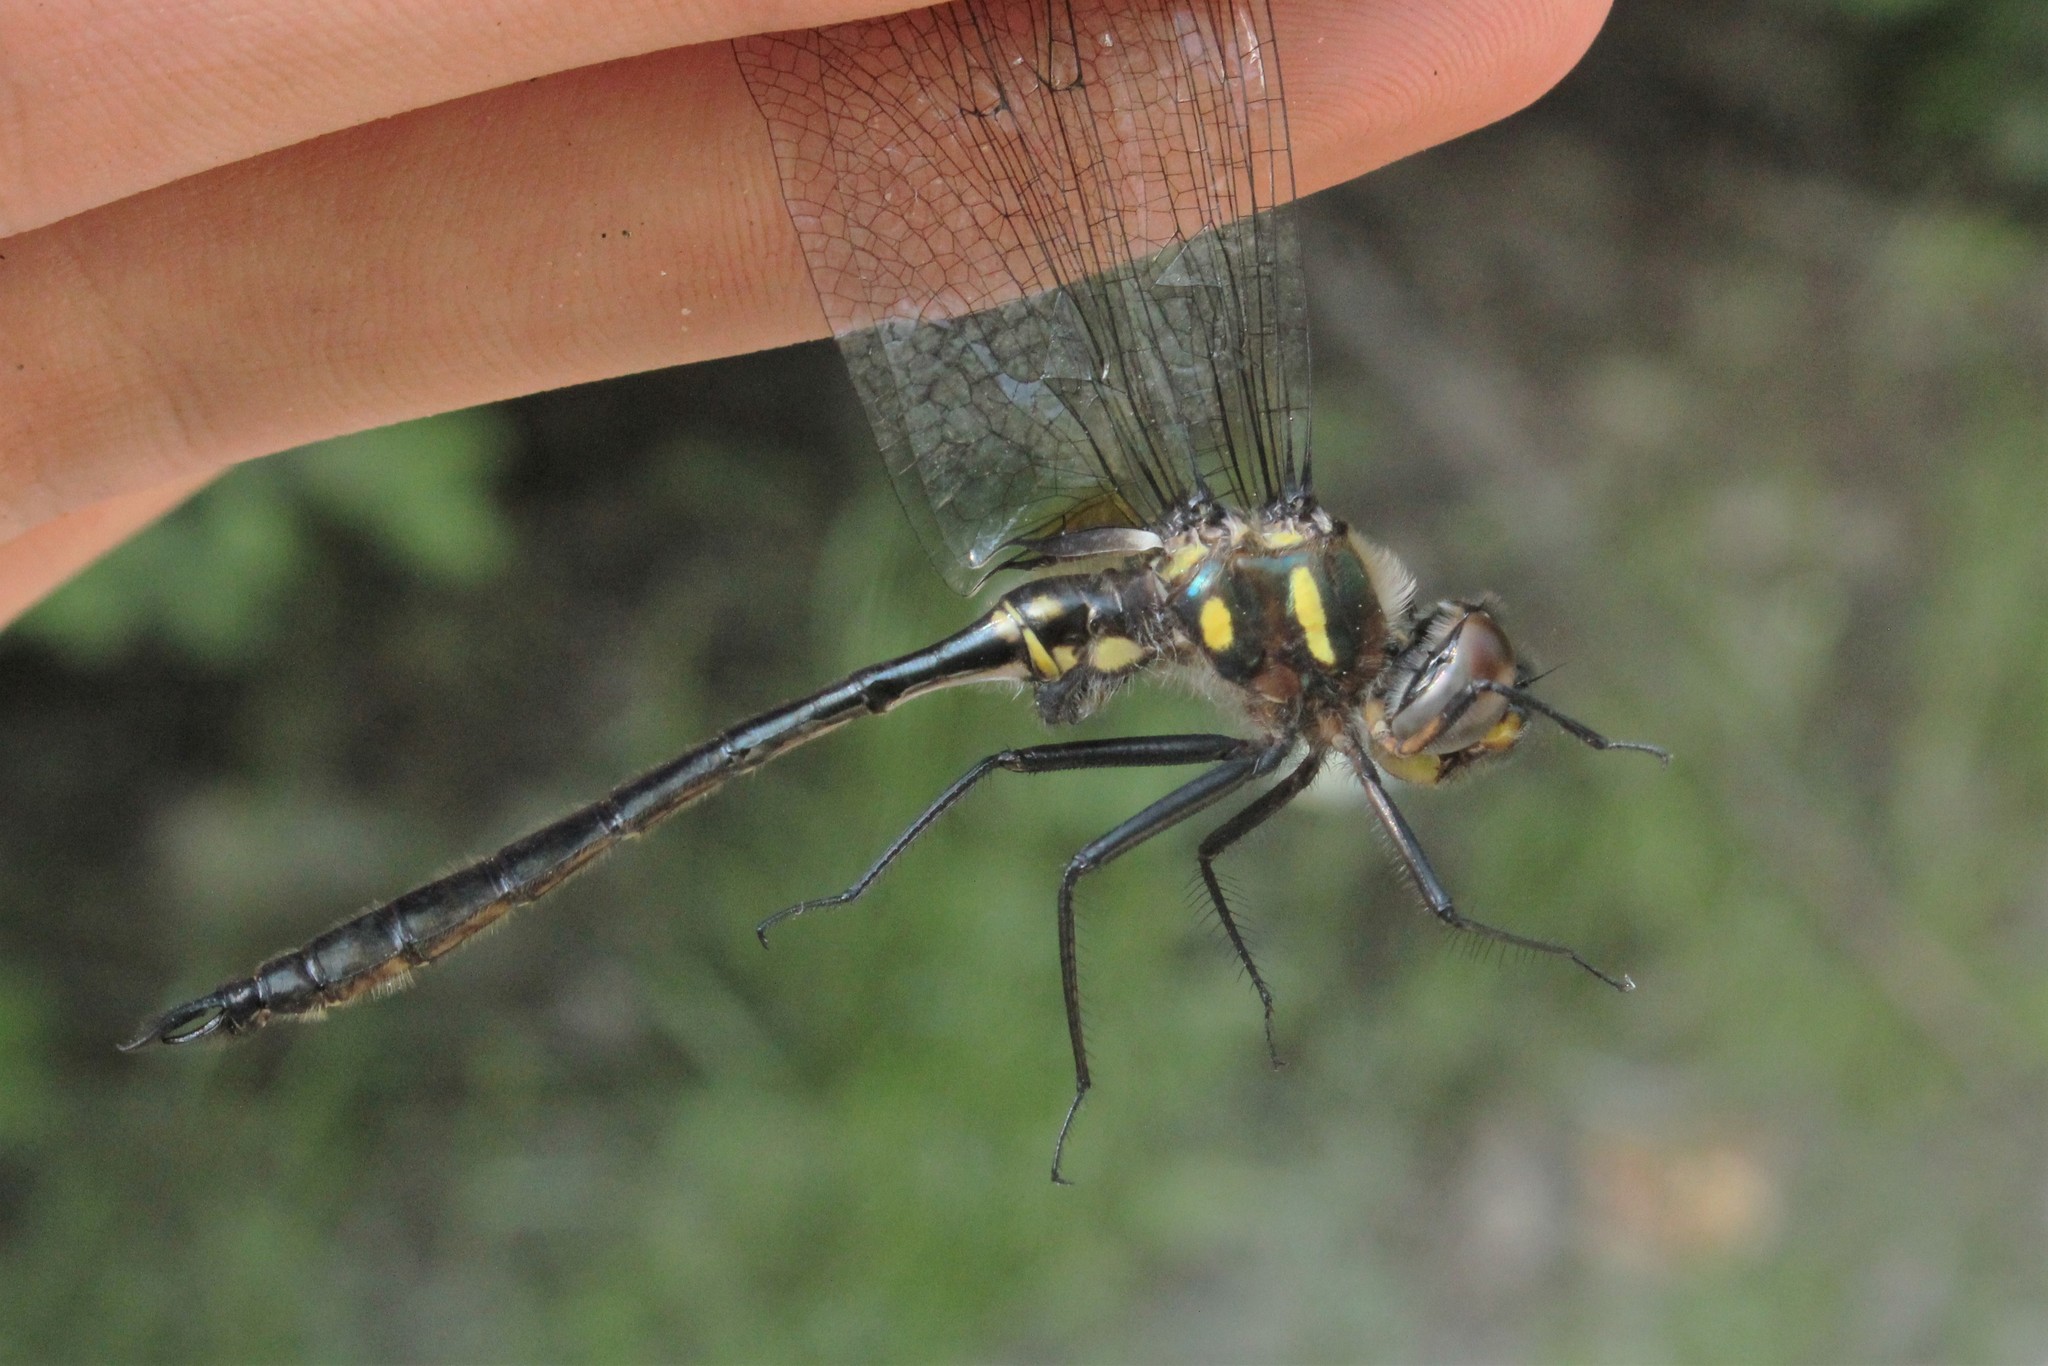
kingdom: Animalia
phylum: Arthropoda
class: Insecta
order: Odonata
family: Corduliidae
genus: Somatochlora
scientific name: Somatochlora elongata
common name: Ski-tipped emerald
